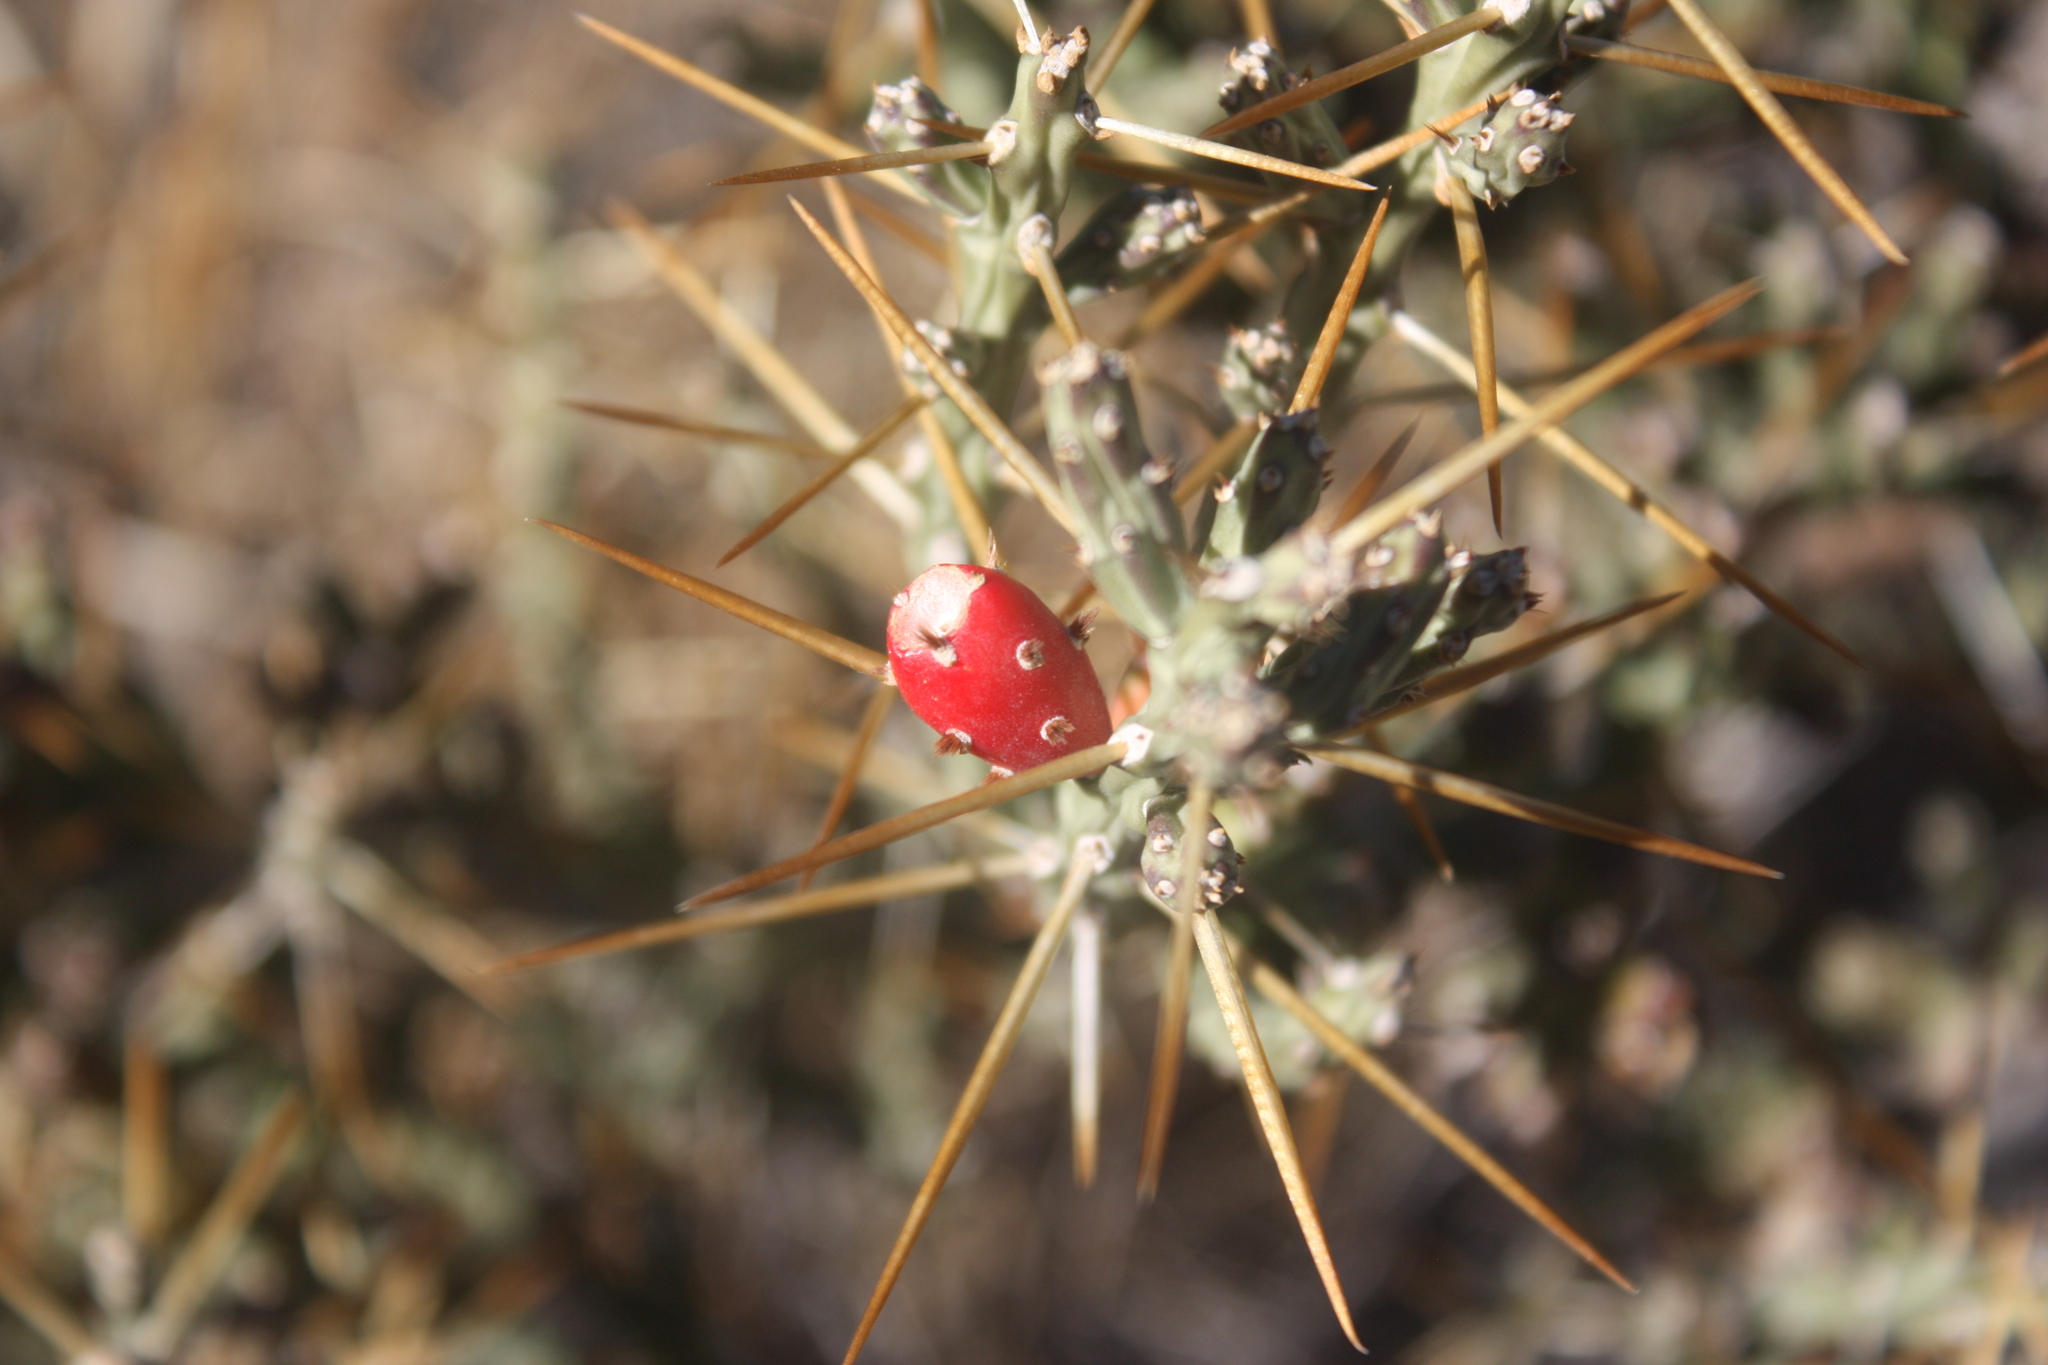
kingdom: Plantae
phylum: Tracheophyta
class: Magnoliopsida
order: Caryophyllales
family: Cactaceae
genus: Cylindropuntia
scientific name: Cylindropuntia leptocaulis
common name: Christmas cactus
